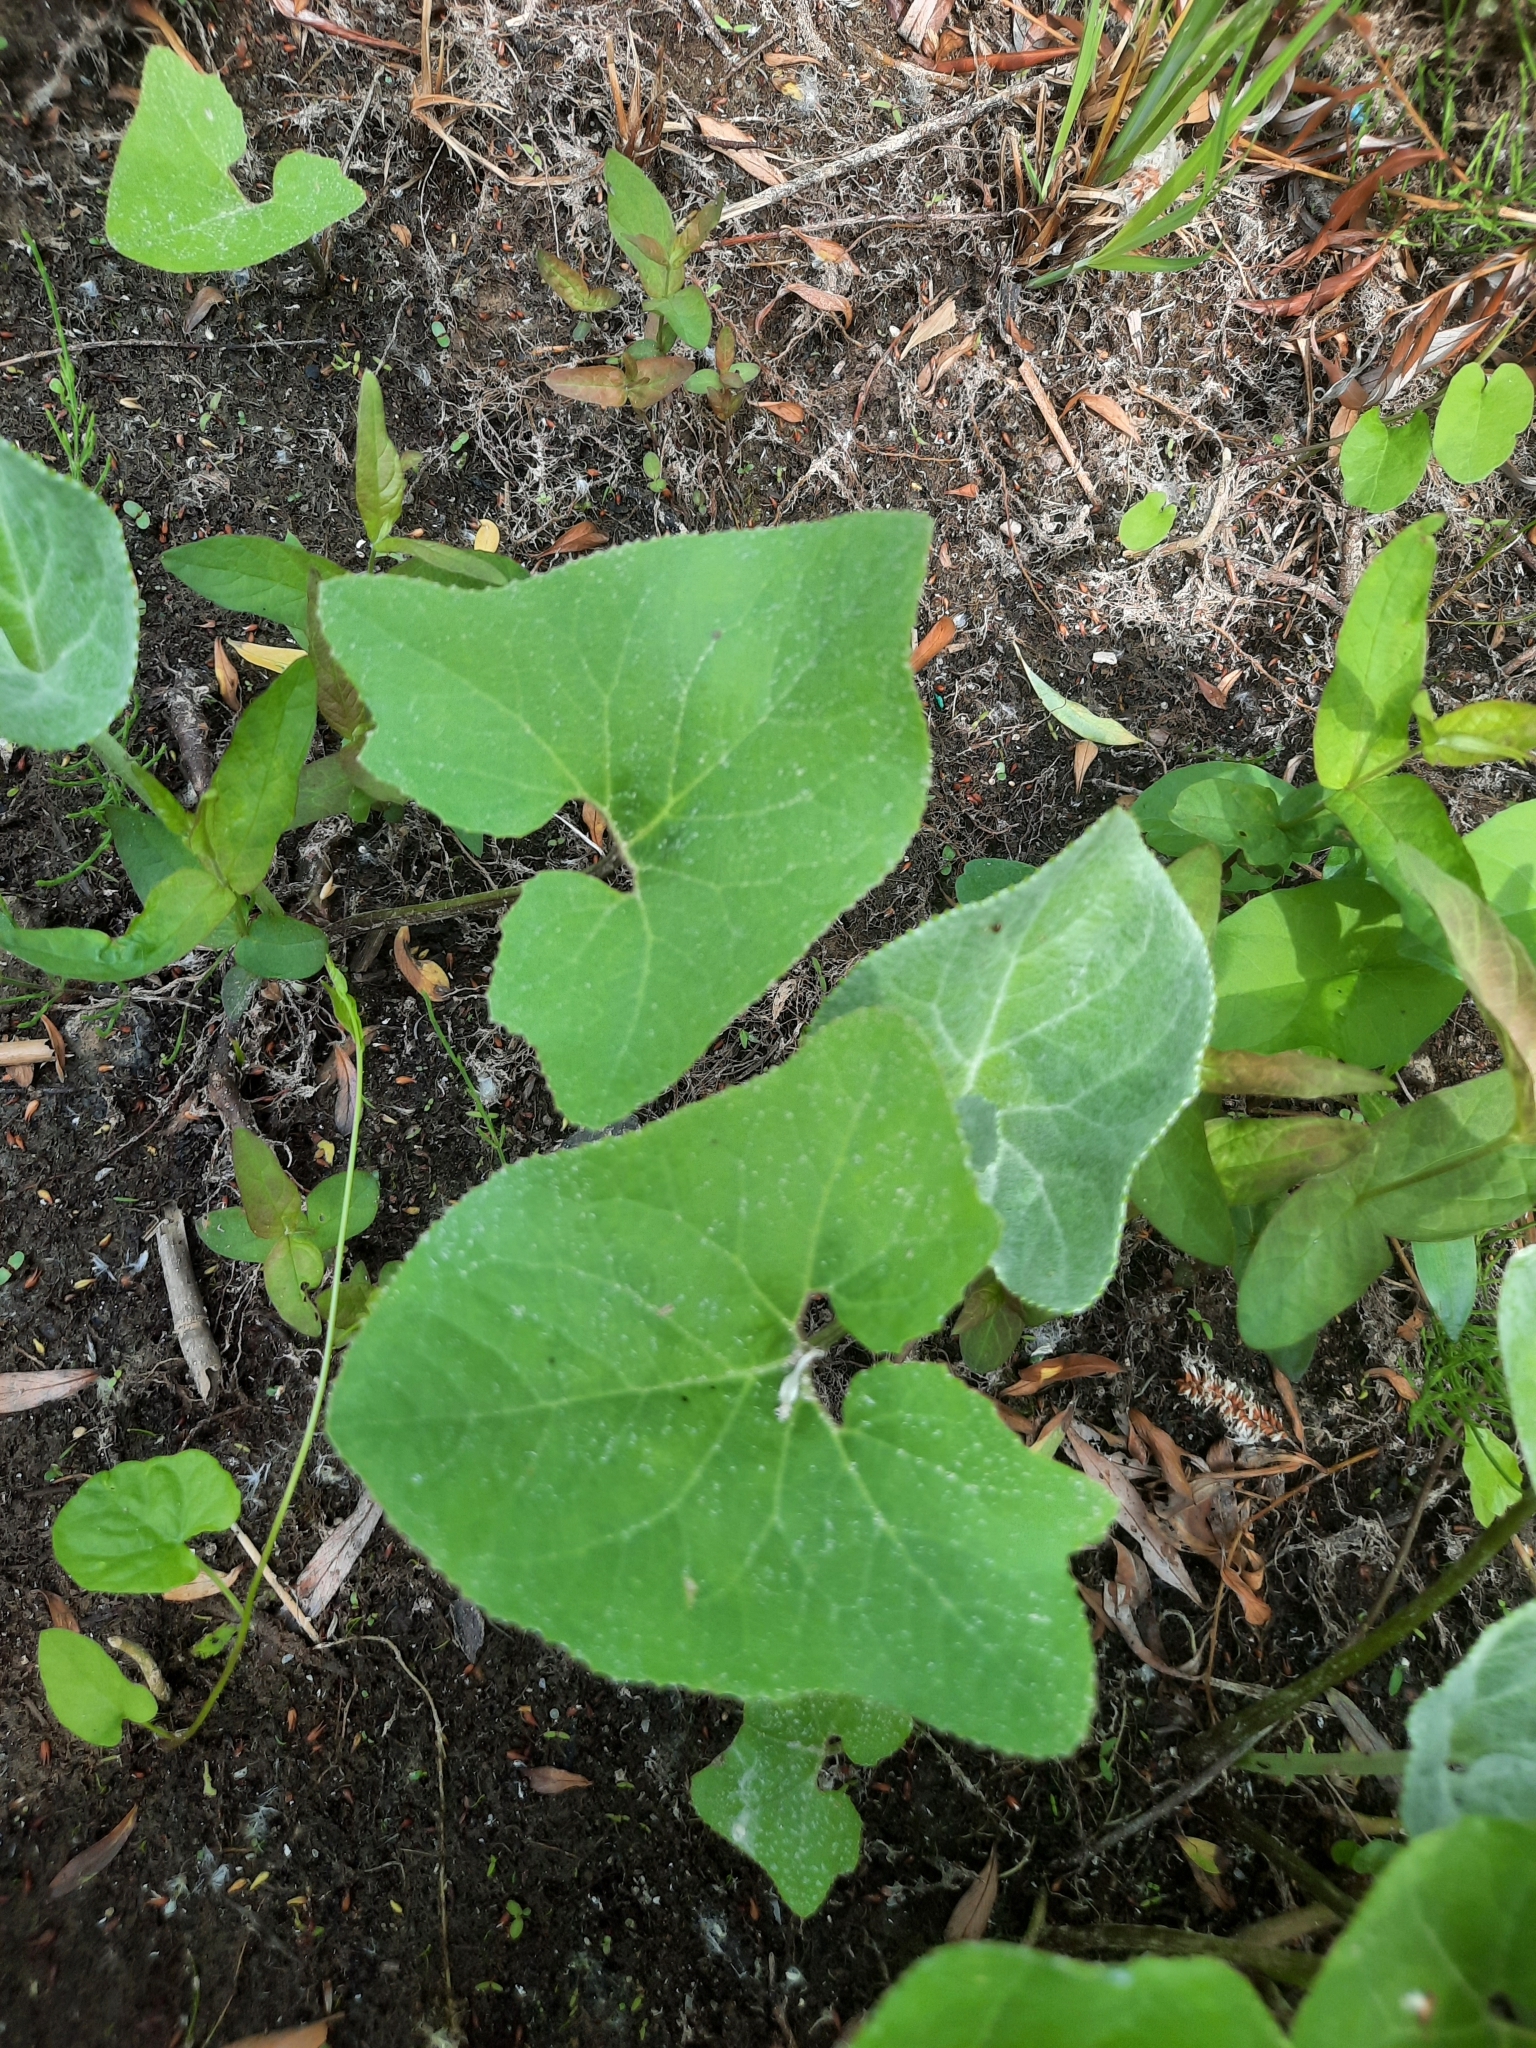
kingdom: Plantae
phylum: Tracheophyta
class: Magnoliopsida
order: Asterales
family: Asteraceae
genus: Petasites
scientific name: Petasites spurius
